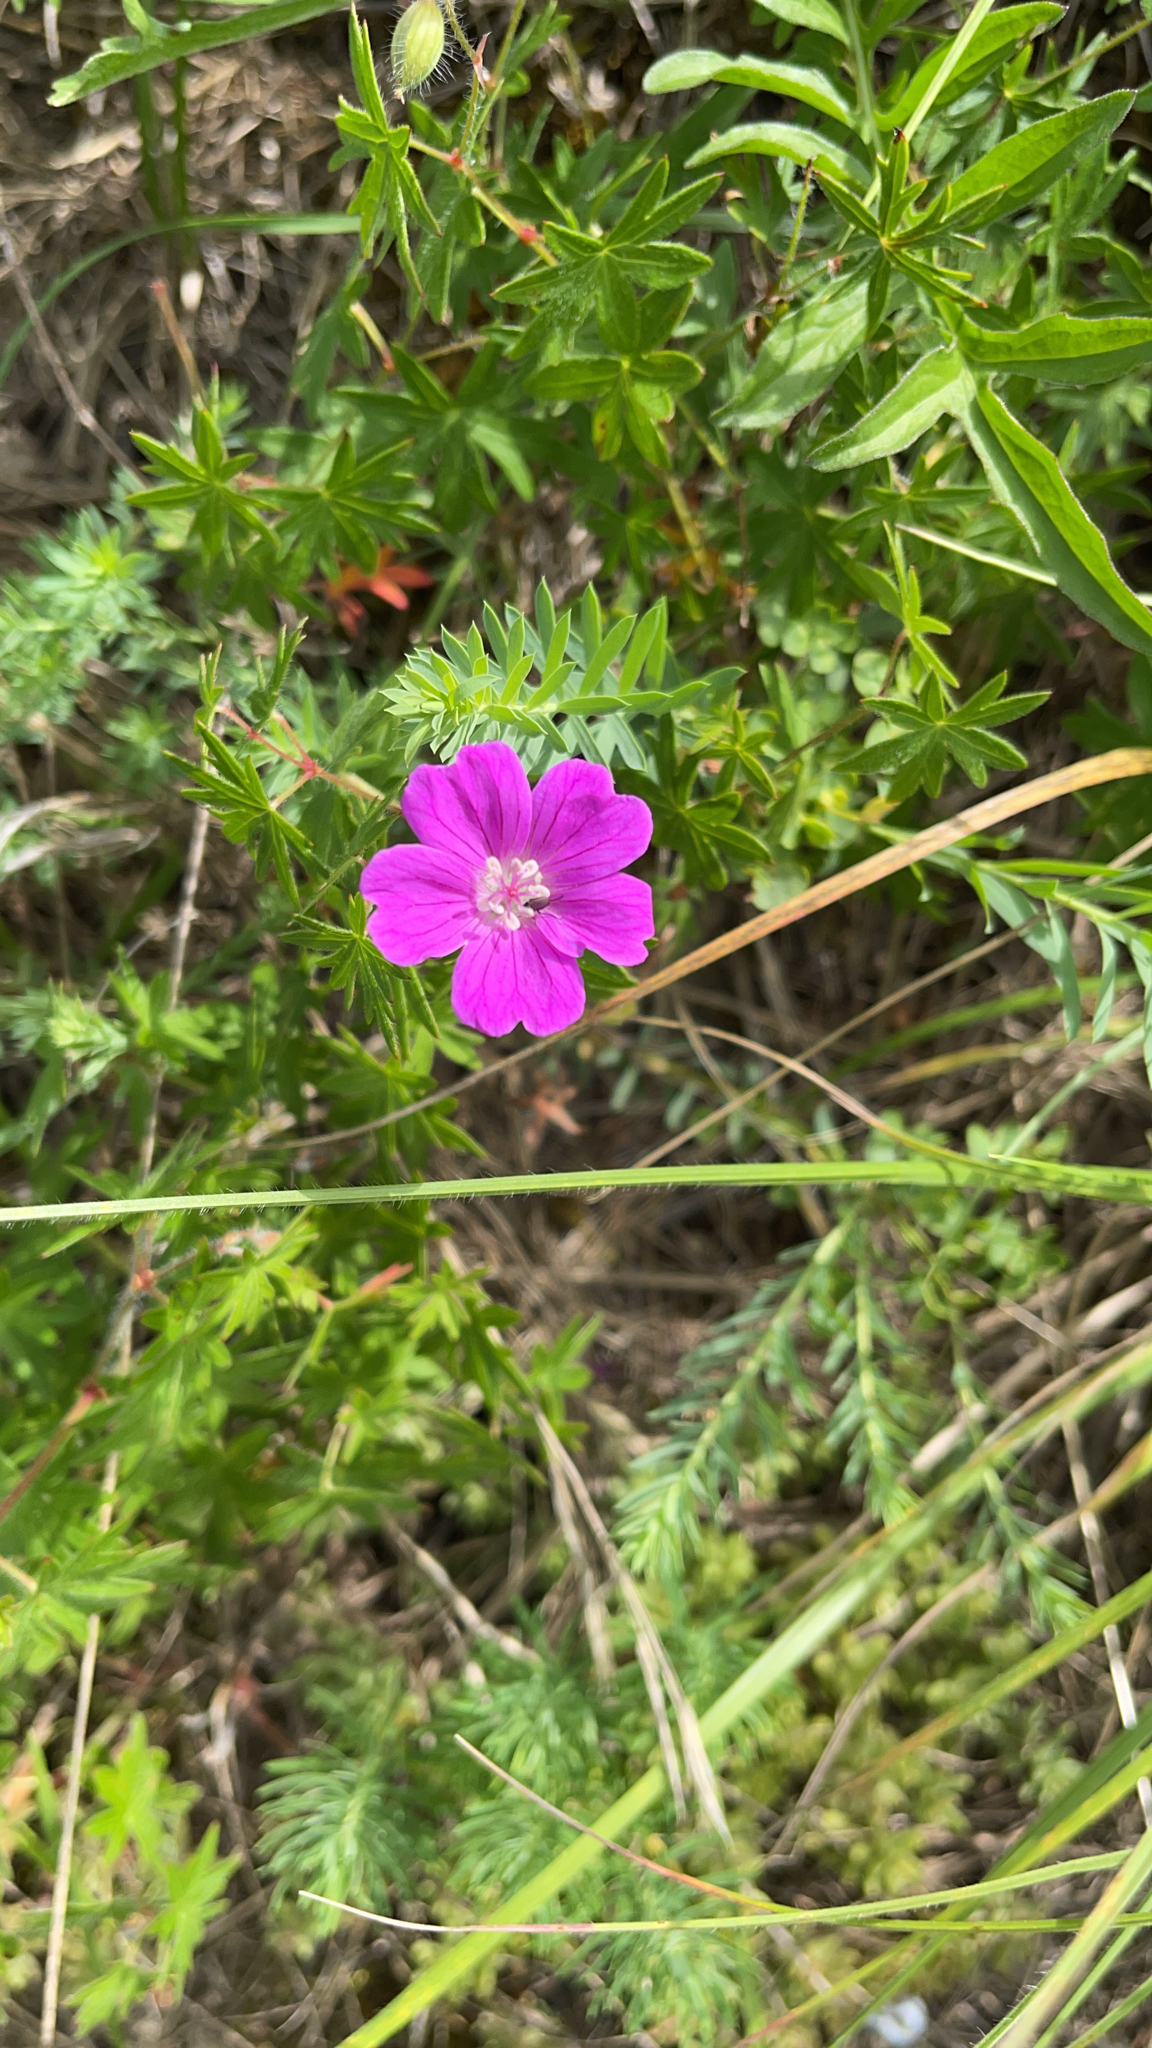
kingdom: Plantae
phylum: Tracheophyta
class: Magnoliopsida
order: Geraniales
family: Geraniaceae
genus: Geranium
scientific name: Geranium sanguineum
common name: Bloody crane's-bill
